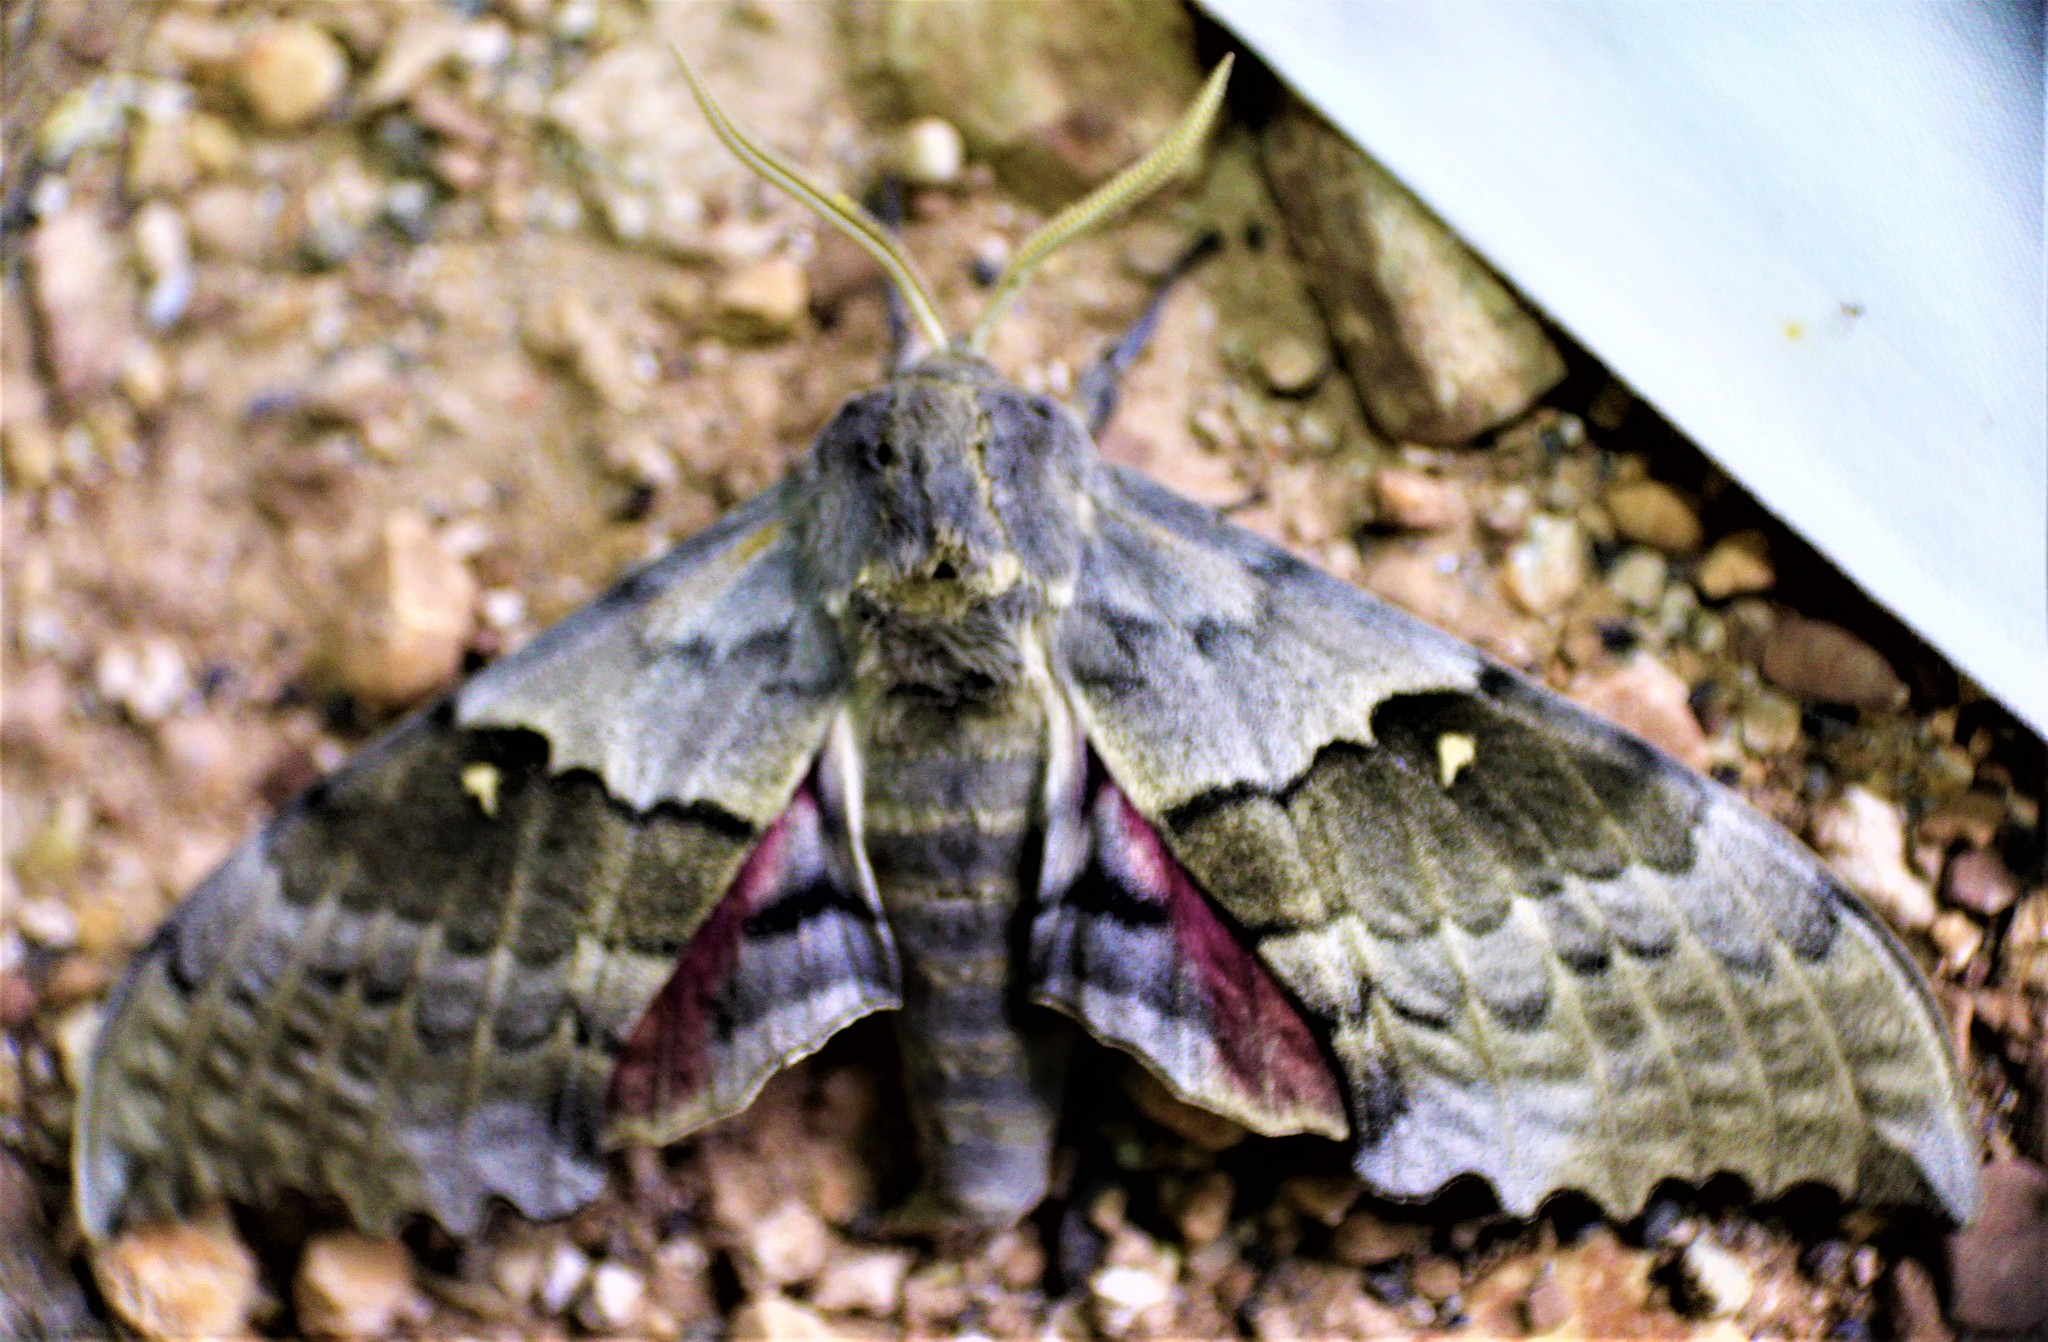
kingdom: Animalia
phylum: Arthropoda
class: Insecta
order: Lepidoptera
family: Sphingidae
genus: Pachysphinx
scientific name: Pachysphinx occidentalis
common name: Western poplar sphinx
